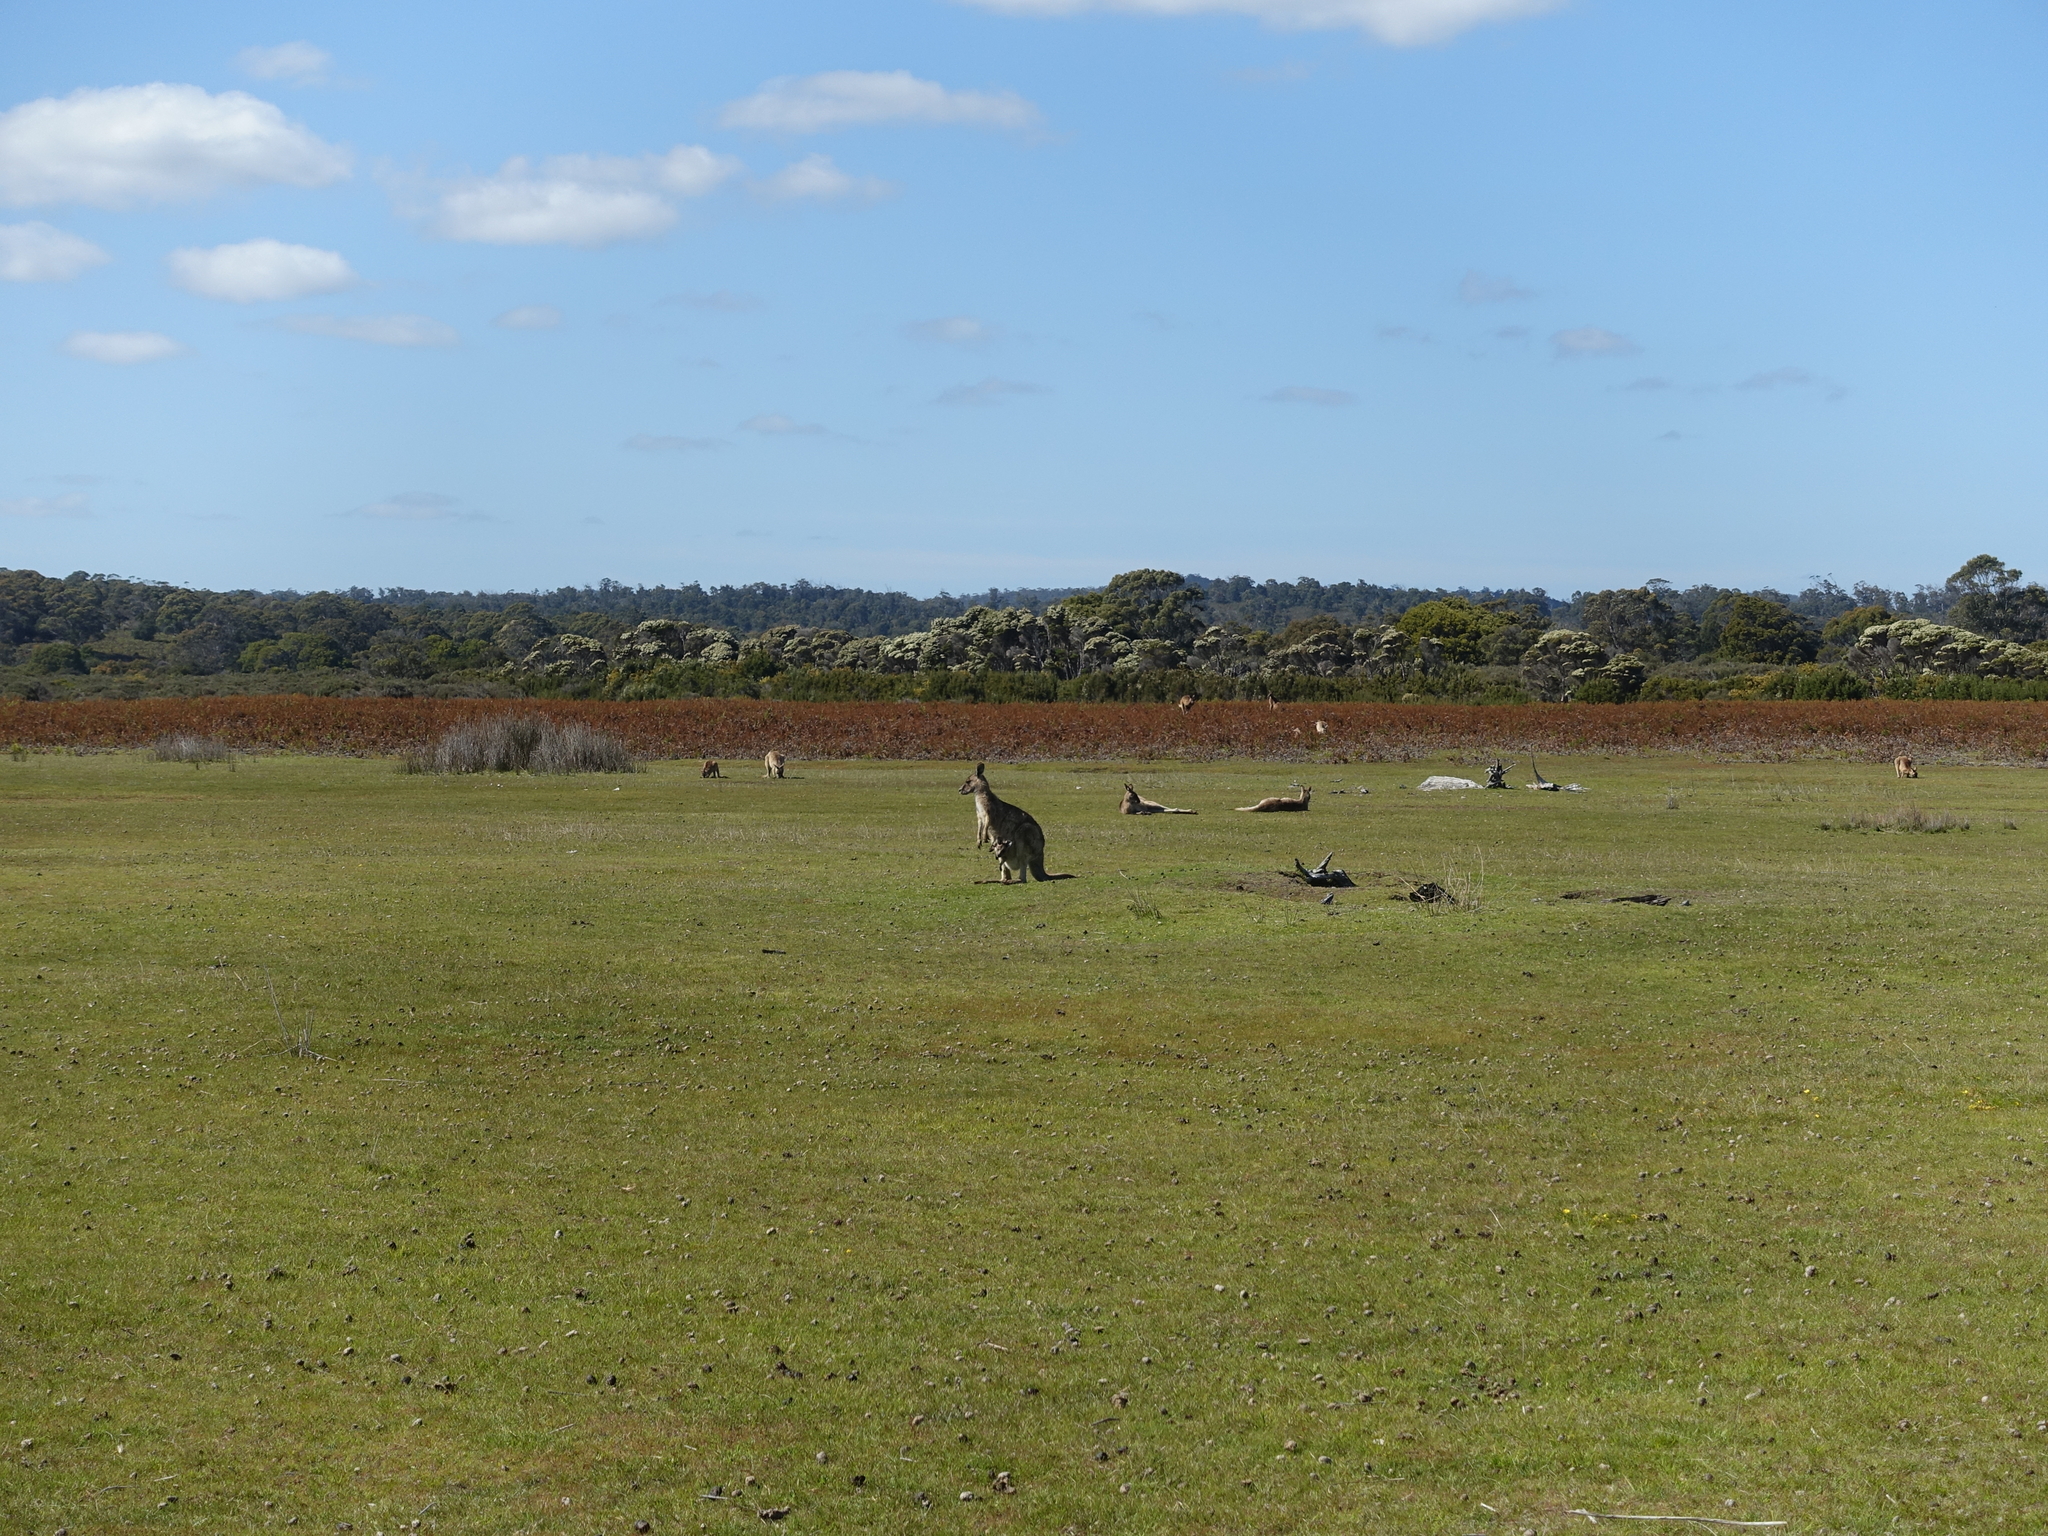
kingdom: Animalia
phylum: Chordata
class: Mammalia
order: Diprotodontia
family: Macropodidae
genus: Macropus
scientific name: Macropus giganteus
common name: Eastern grey kangaroo
